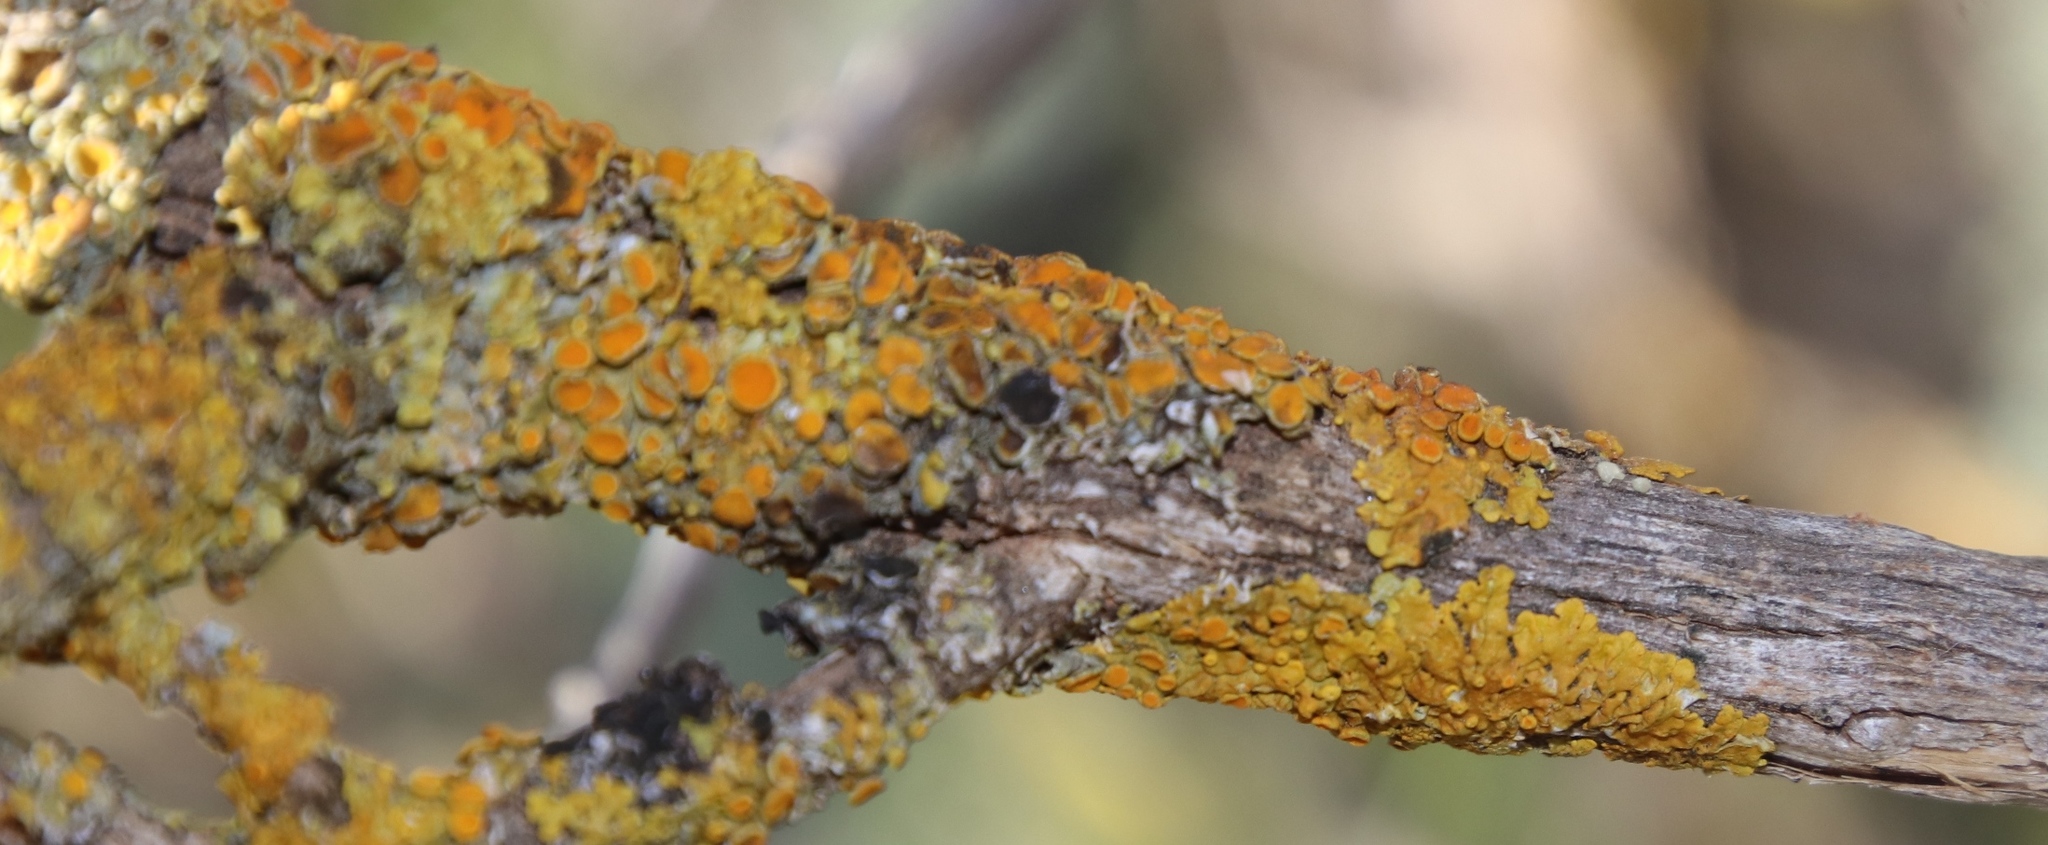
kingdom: Fungi
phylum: Ascomycota
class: Dothideomycetes
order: Mycosphaerellales
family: Teratosphaeriaceae
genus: Xanthoriicola
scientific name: Xanthoriicola physciae
